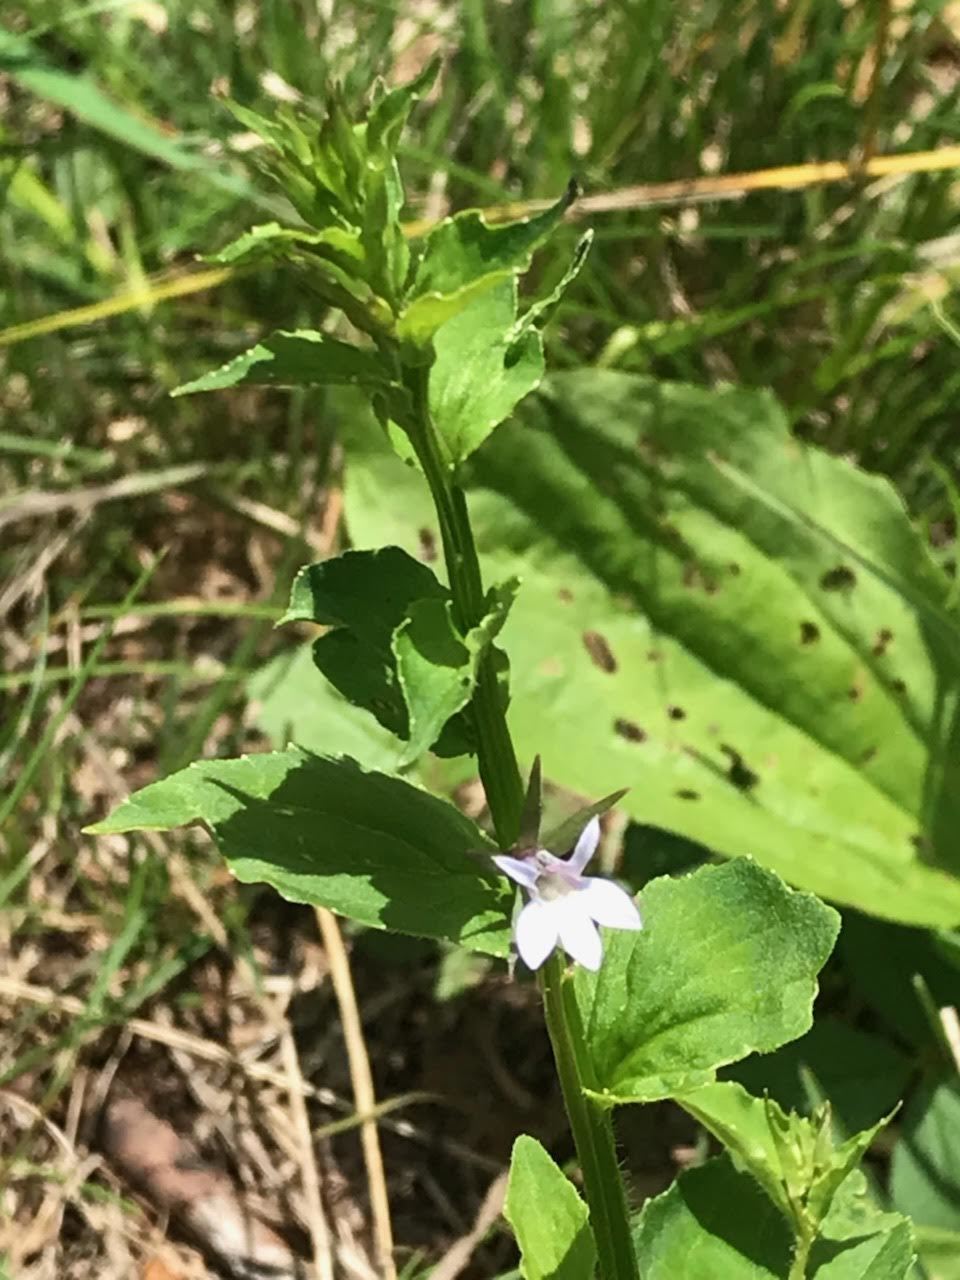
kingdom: Plantae
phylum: Tracheophyta
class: Magnoliopsida
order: Asterales
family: Campanulaceae
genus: Lobelia
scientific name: Lobelia inflata
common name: Indian tobacco
